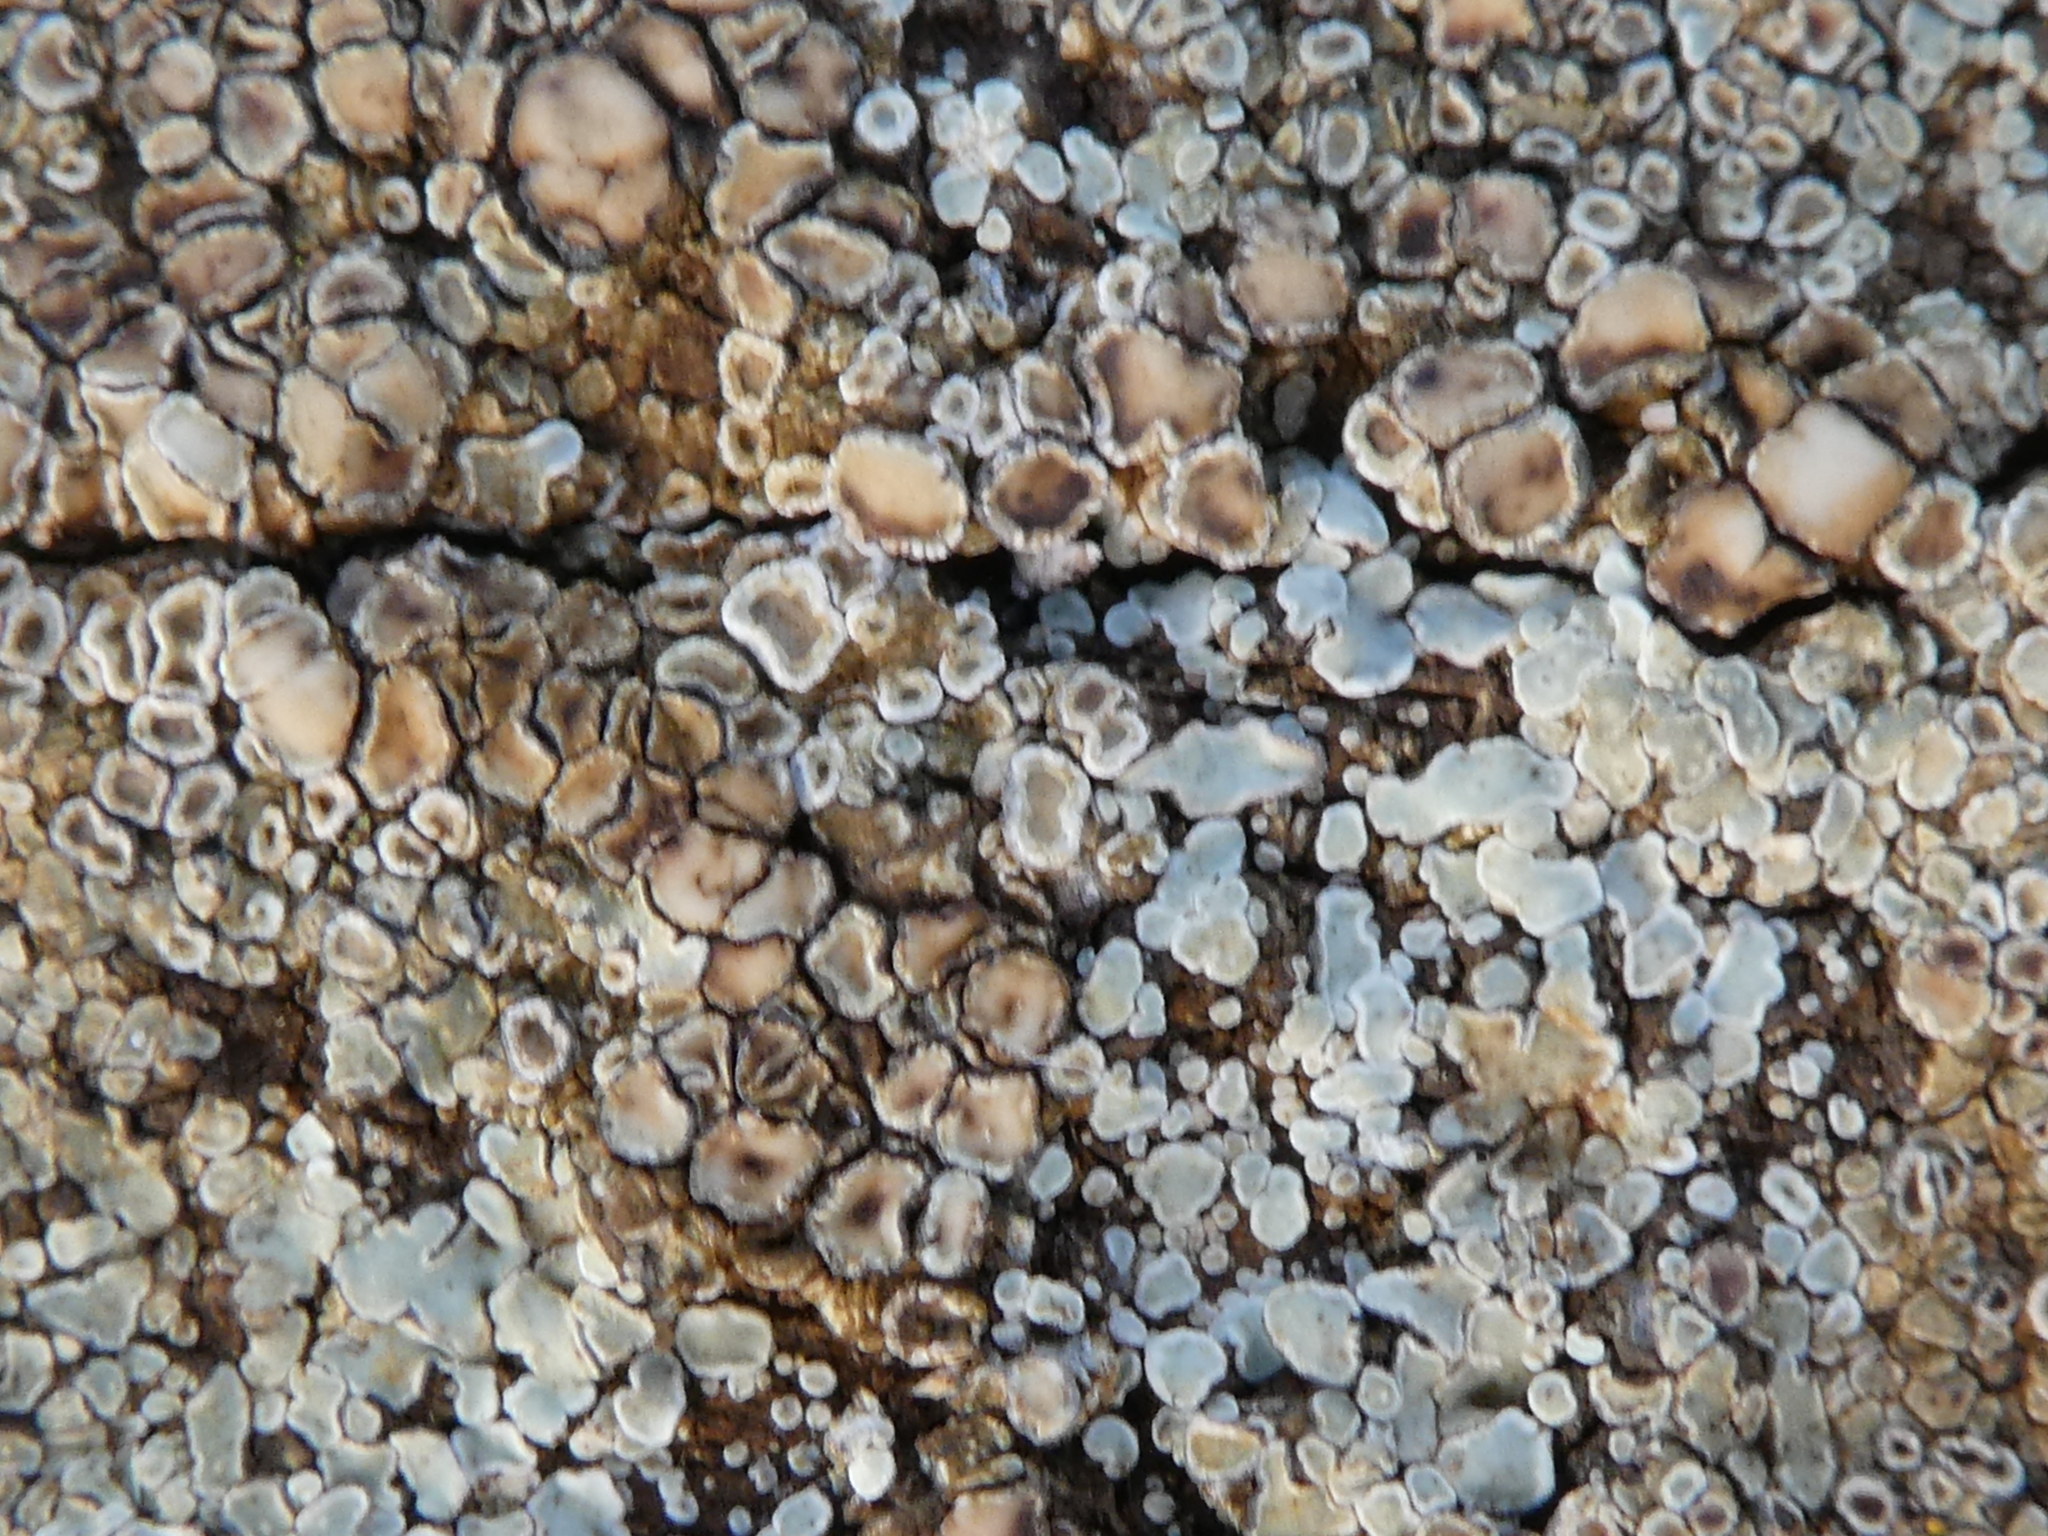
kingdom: Fungi
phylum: Ascomycota
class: Lecanoromycetes
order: Lecanorales
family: Lecanoraceae
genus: Protoparmeliopsis
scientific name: Protoparmeliopsis muralis
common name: Stonewall rim lichen
